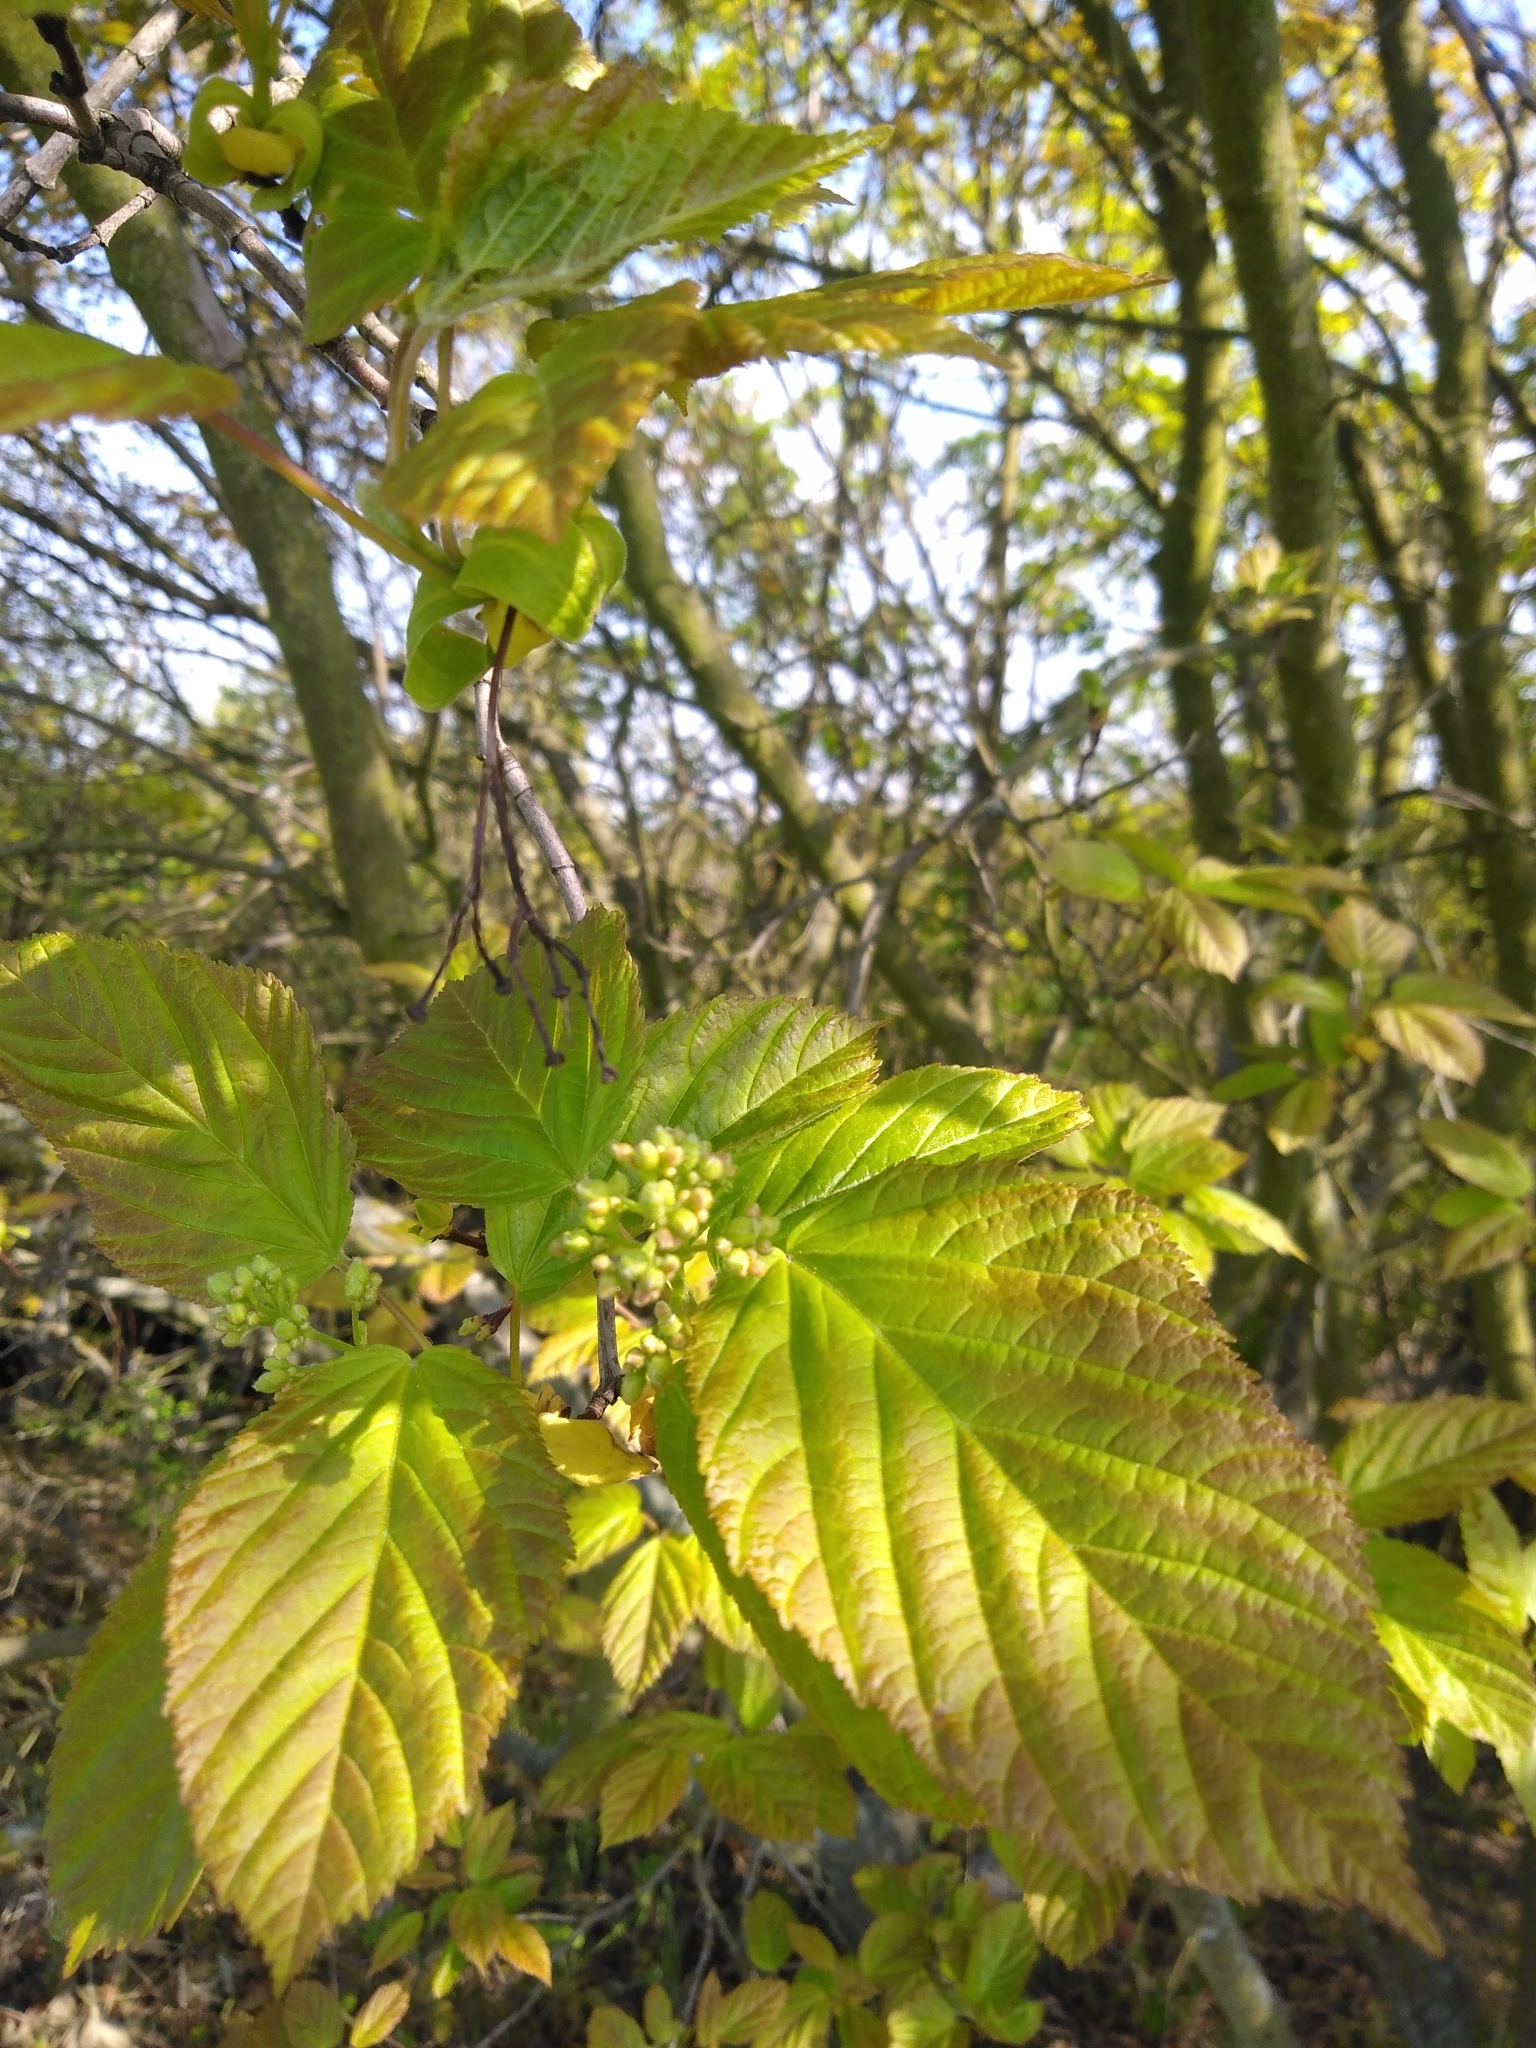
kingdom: Plantae
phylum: Tracheophyta
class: Magnoliopsida
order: Sapindales
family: Sapindaceae
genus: Acer
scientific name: Acer tataricum
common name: Tartar maple
